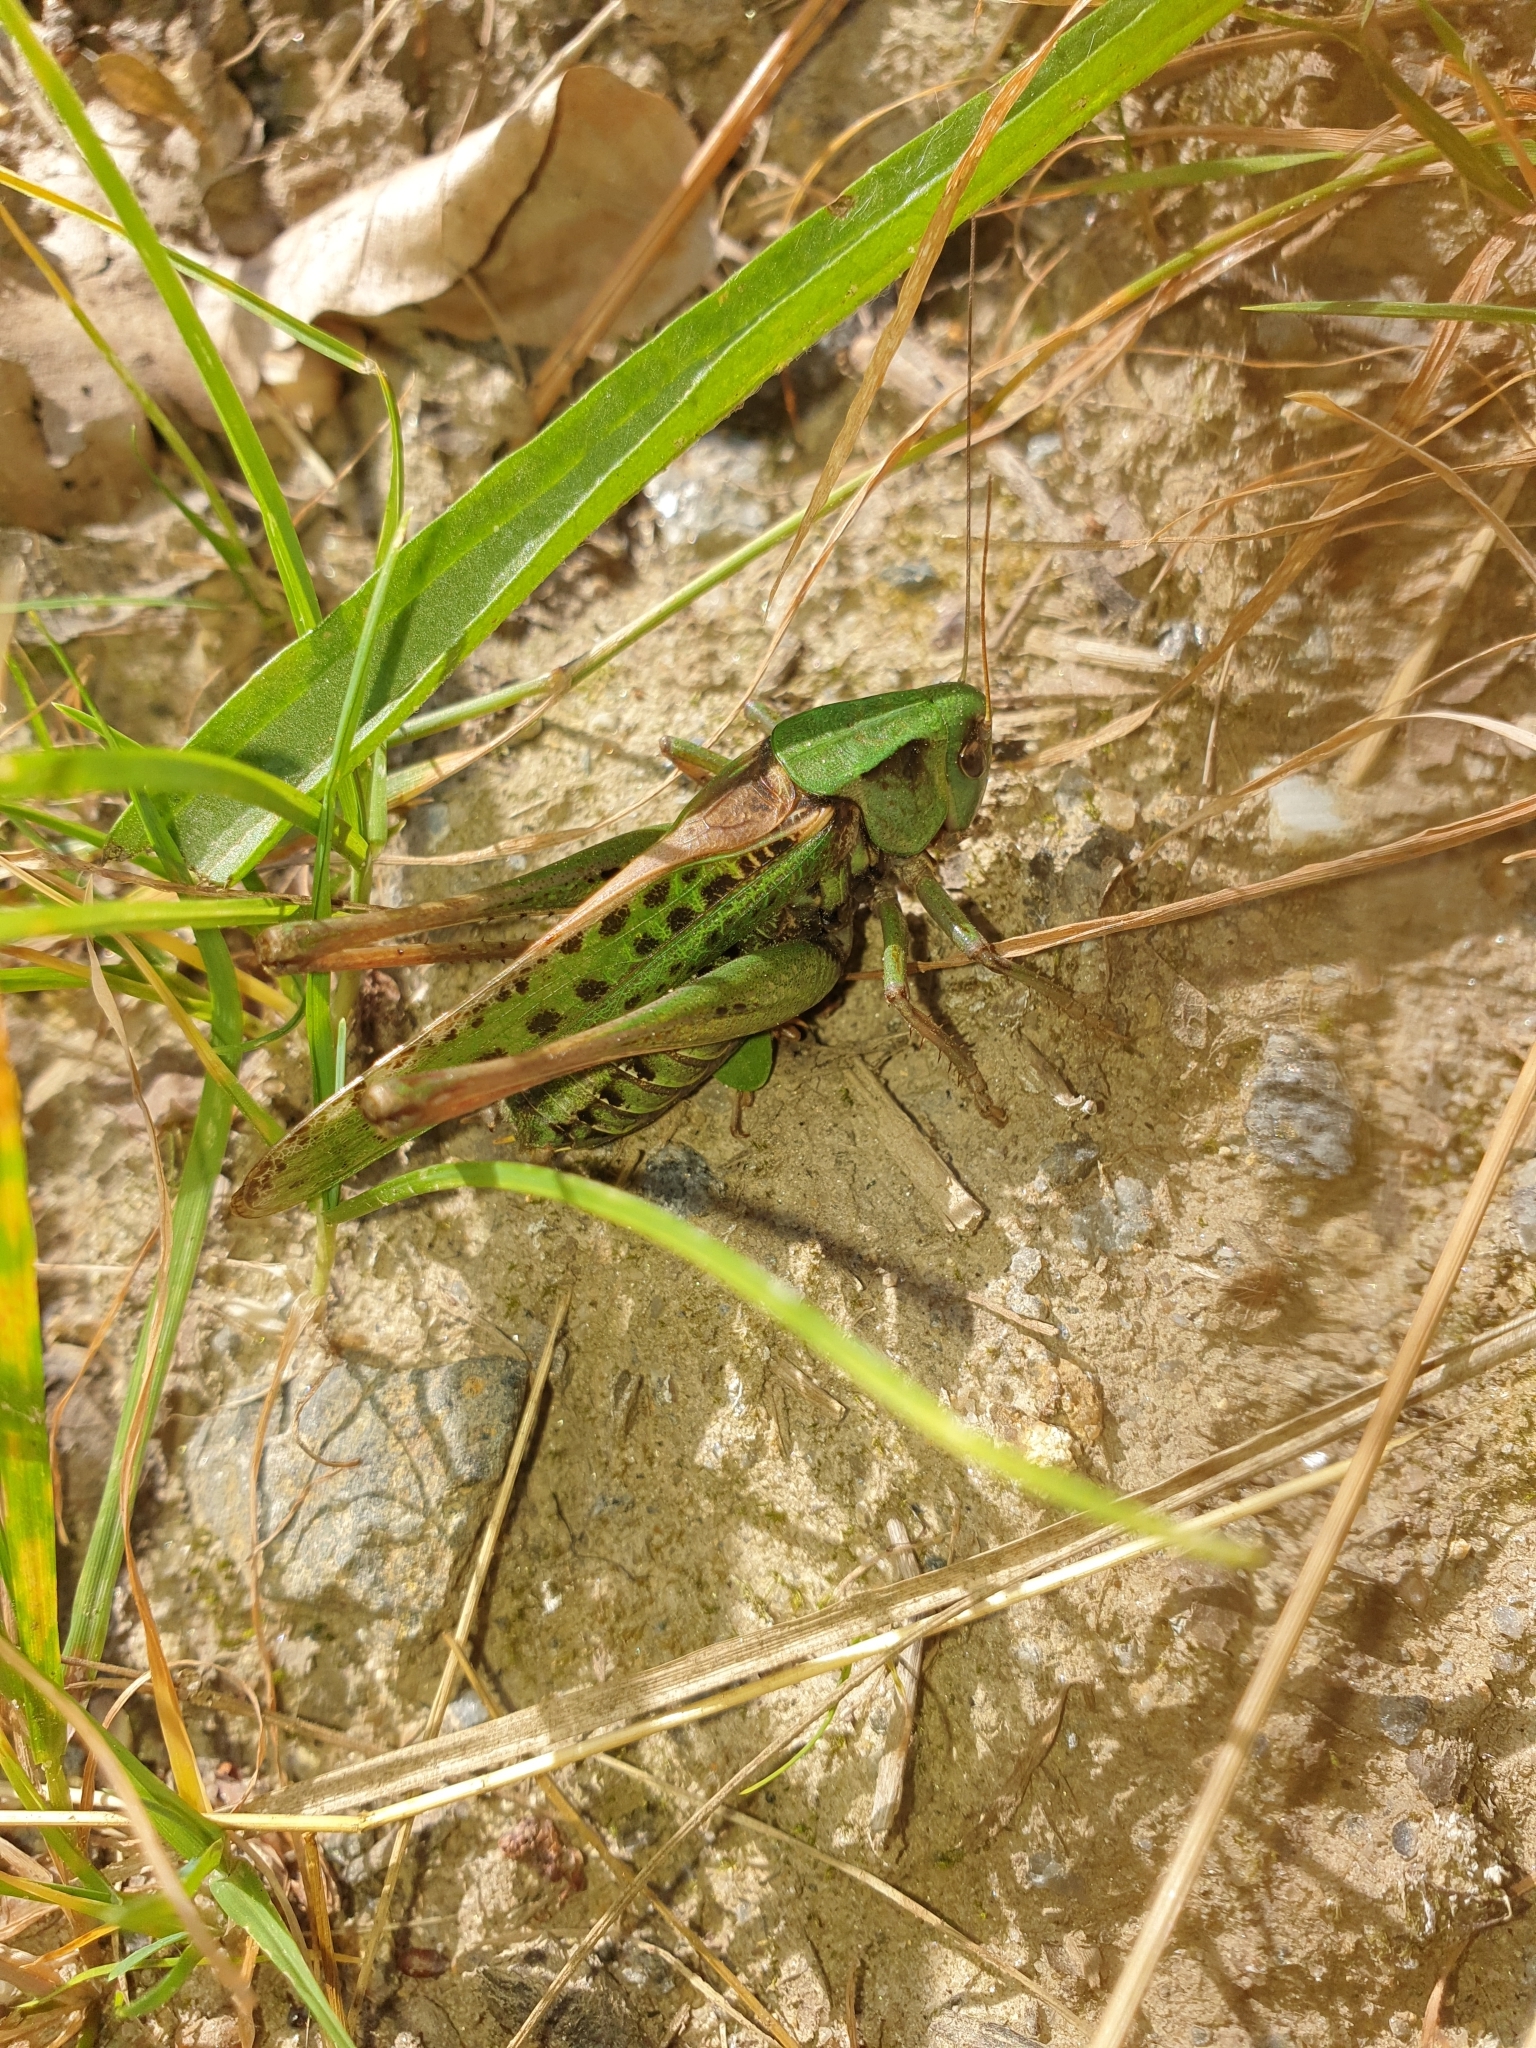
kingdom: Animalia
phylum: Arthropoda
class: Insecta
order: Orthoptera
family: Tettigoniidae
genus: Decticus
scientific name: Decticus verrucivorus
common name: Wart-biter
